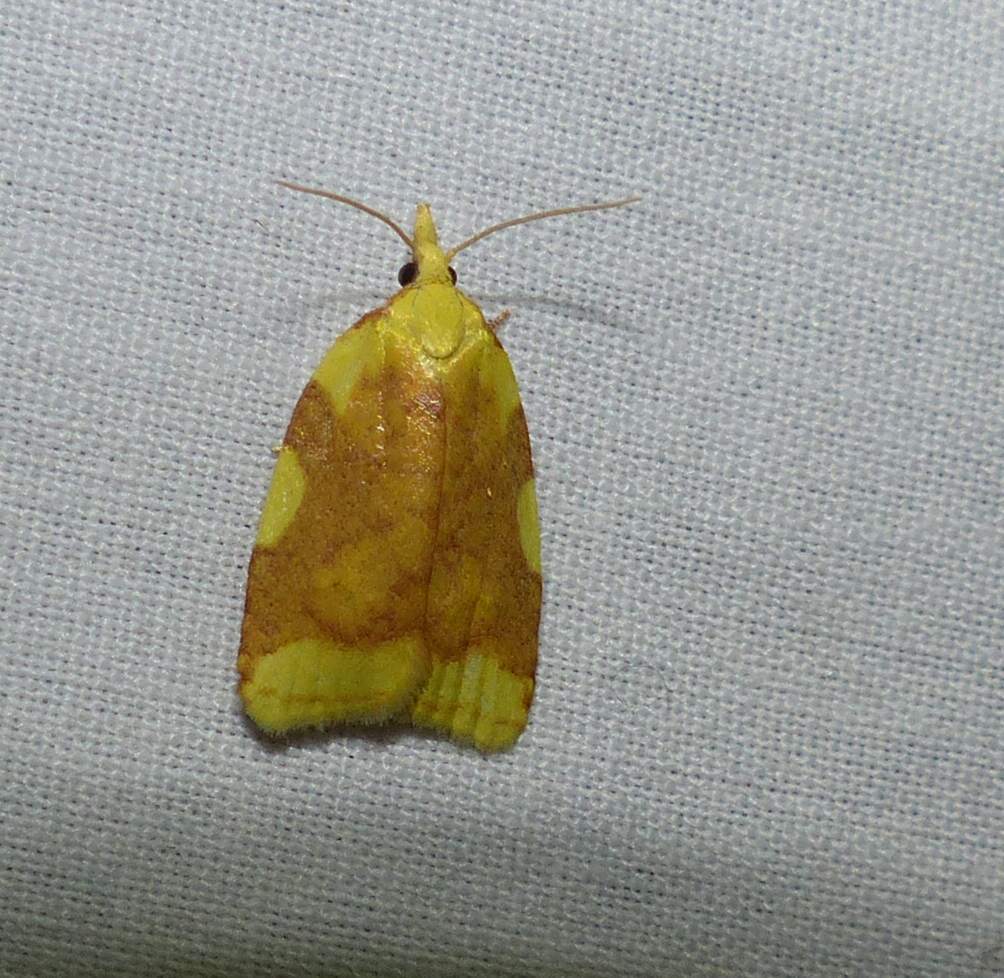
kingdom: Animalia
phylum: Arthropoda
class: Insecta
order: Lepidoptera
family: Tortricidae
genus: Cenopis
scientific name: Cenopis niveana
